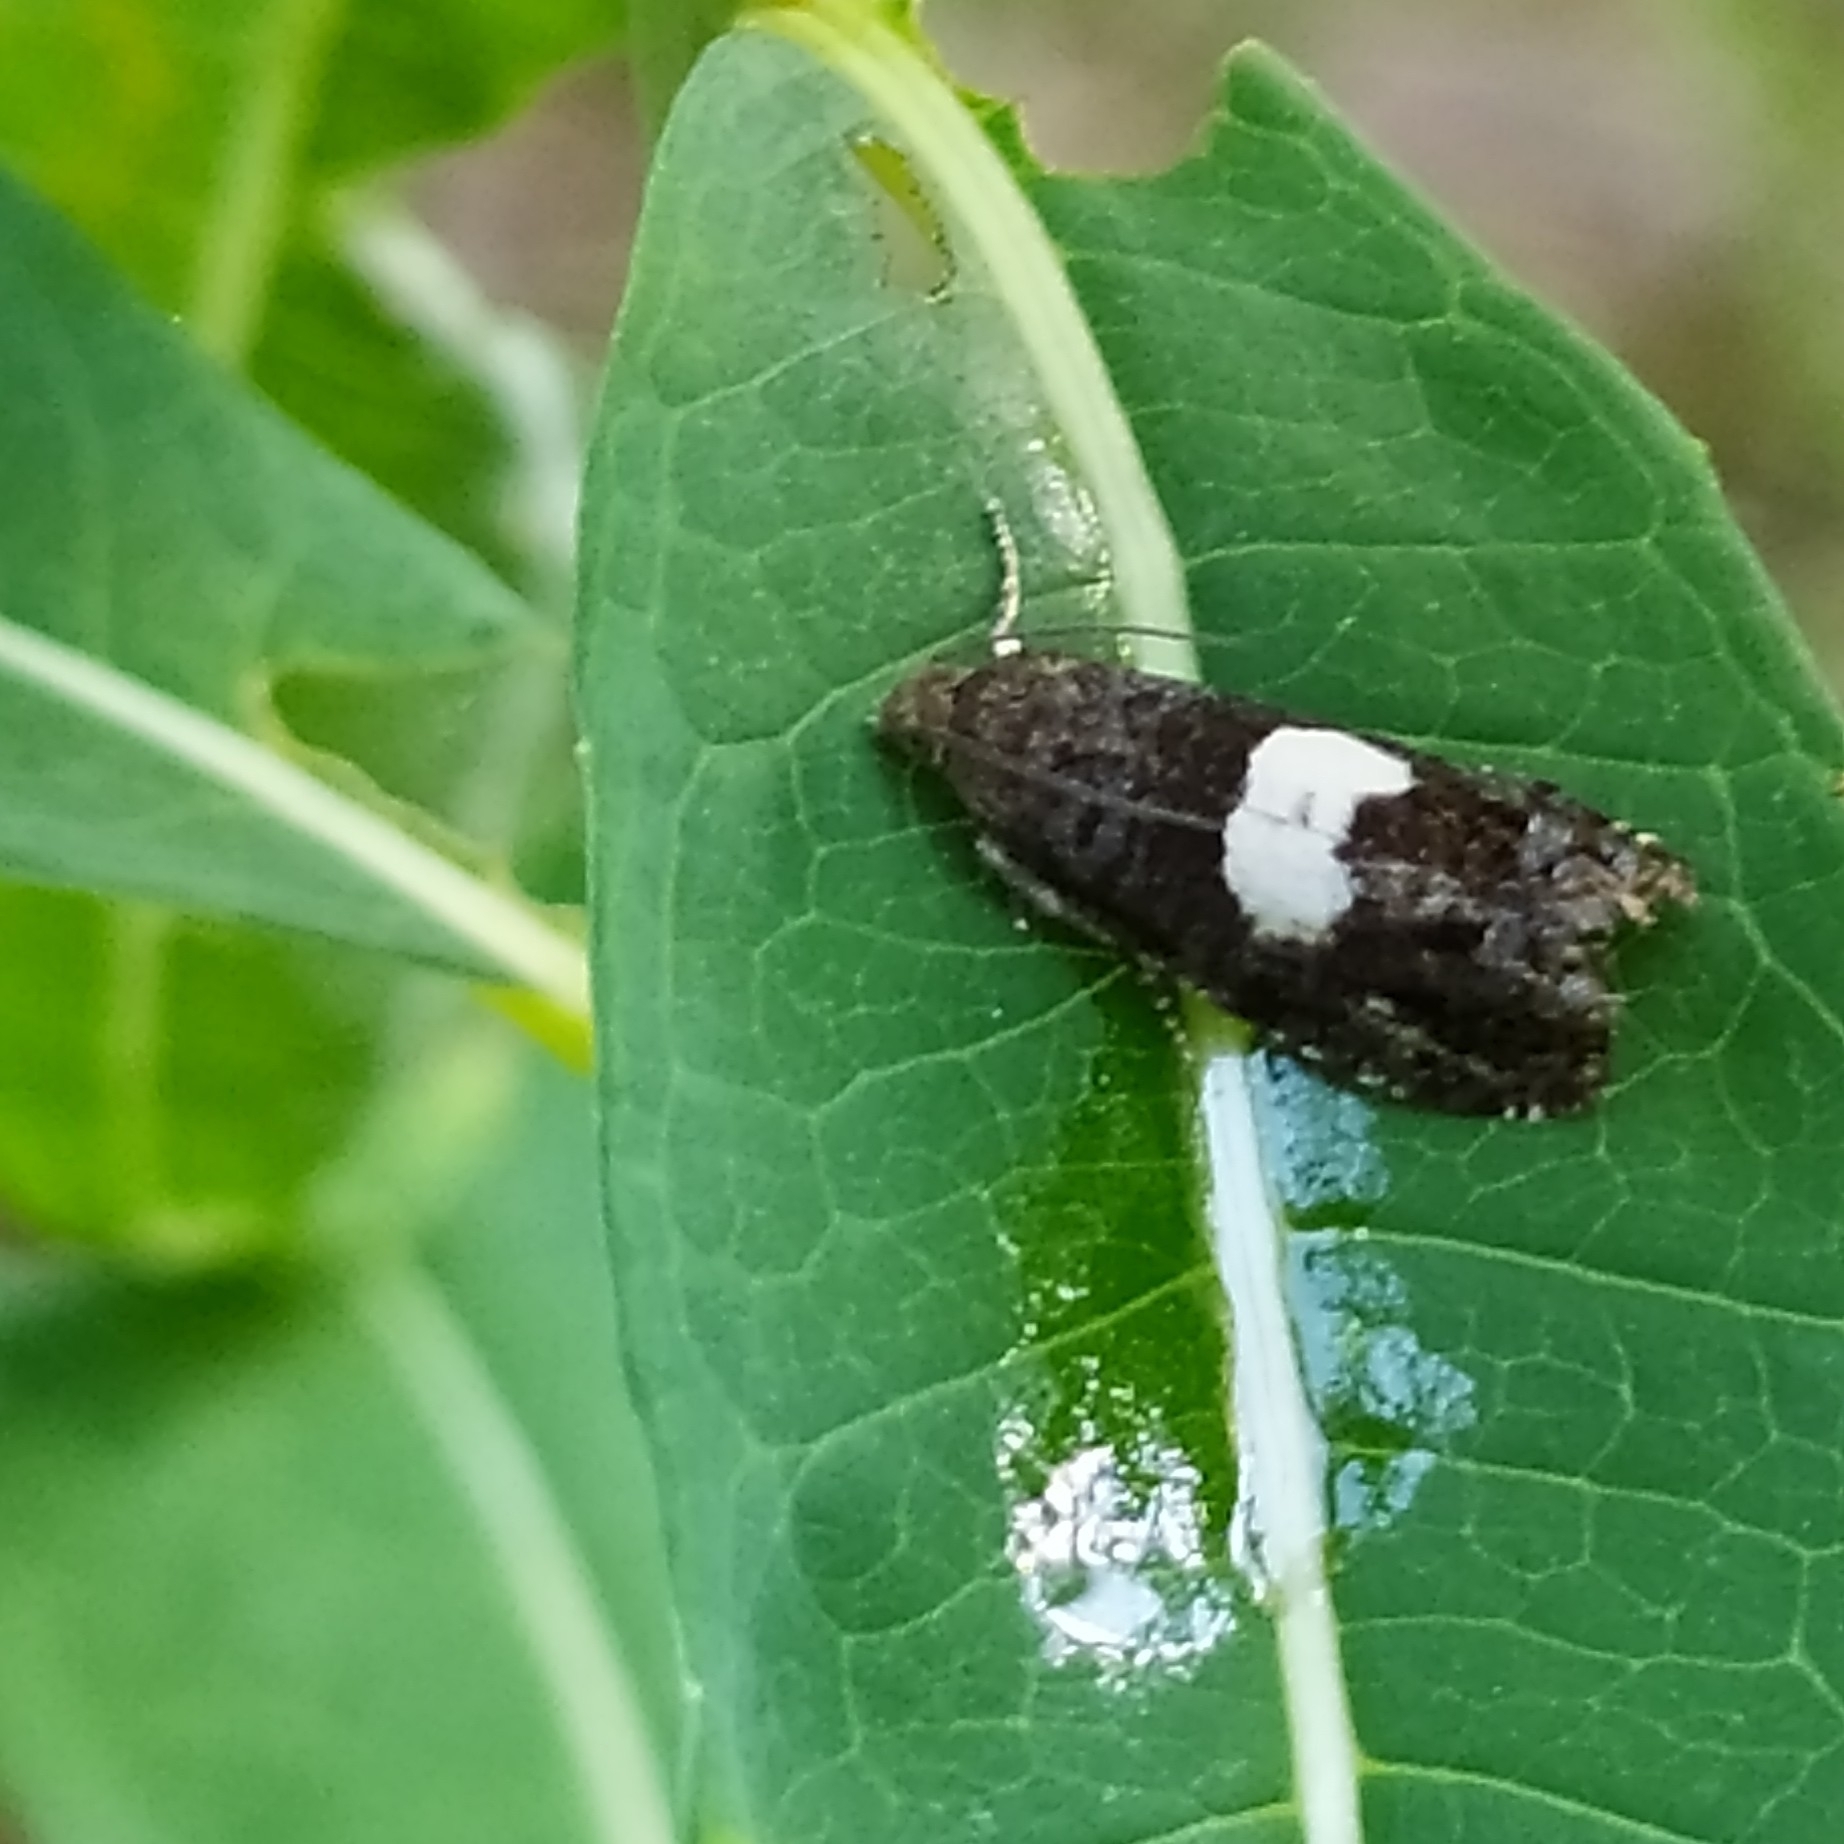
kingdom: Animalia
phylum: Arthropoda
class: Insecta
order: Lepidoptera
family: Tortricidae
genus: Epiblema
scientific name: Epiblema sticticana
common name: Colt's-foot bell
